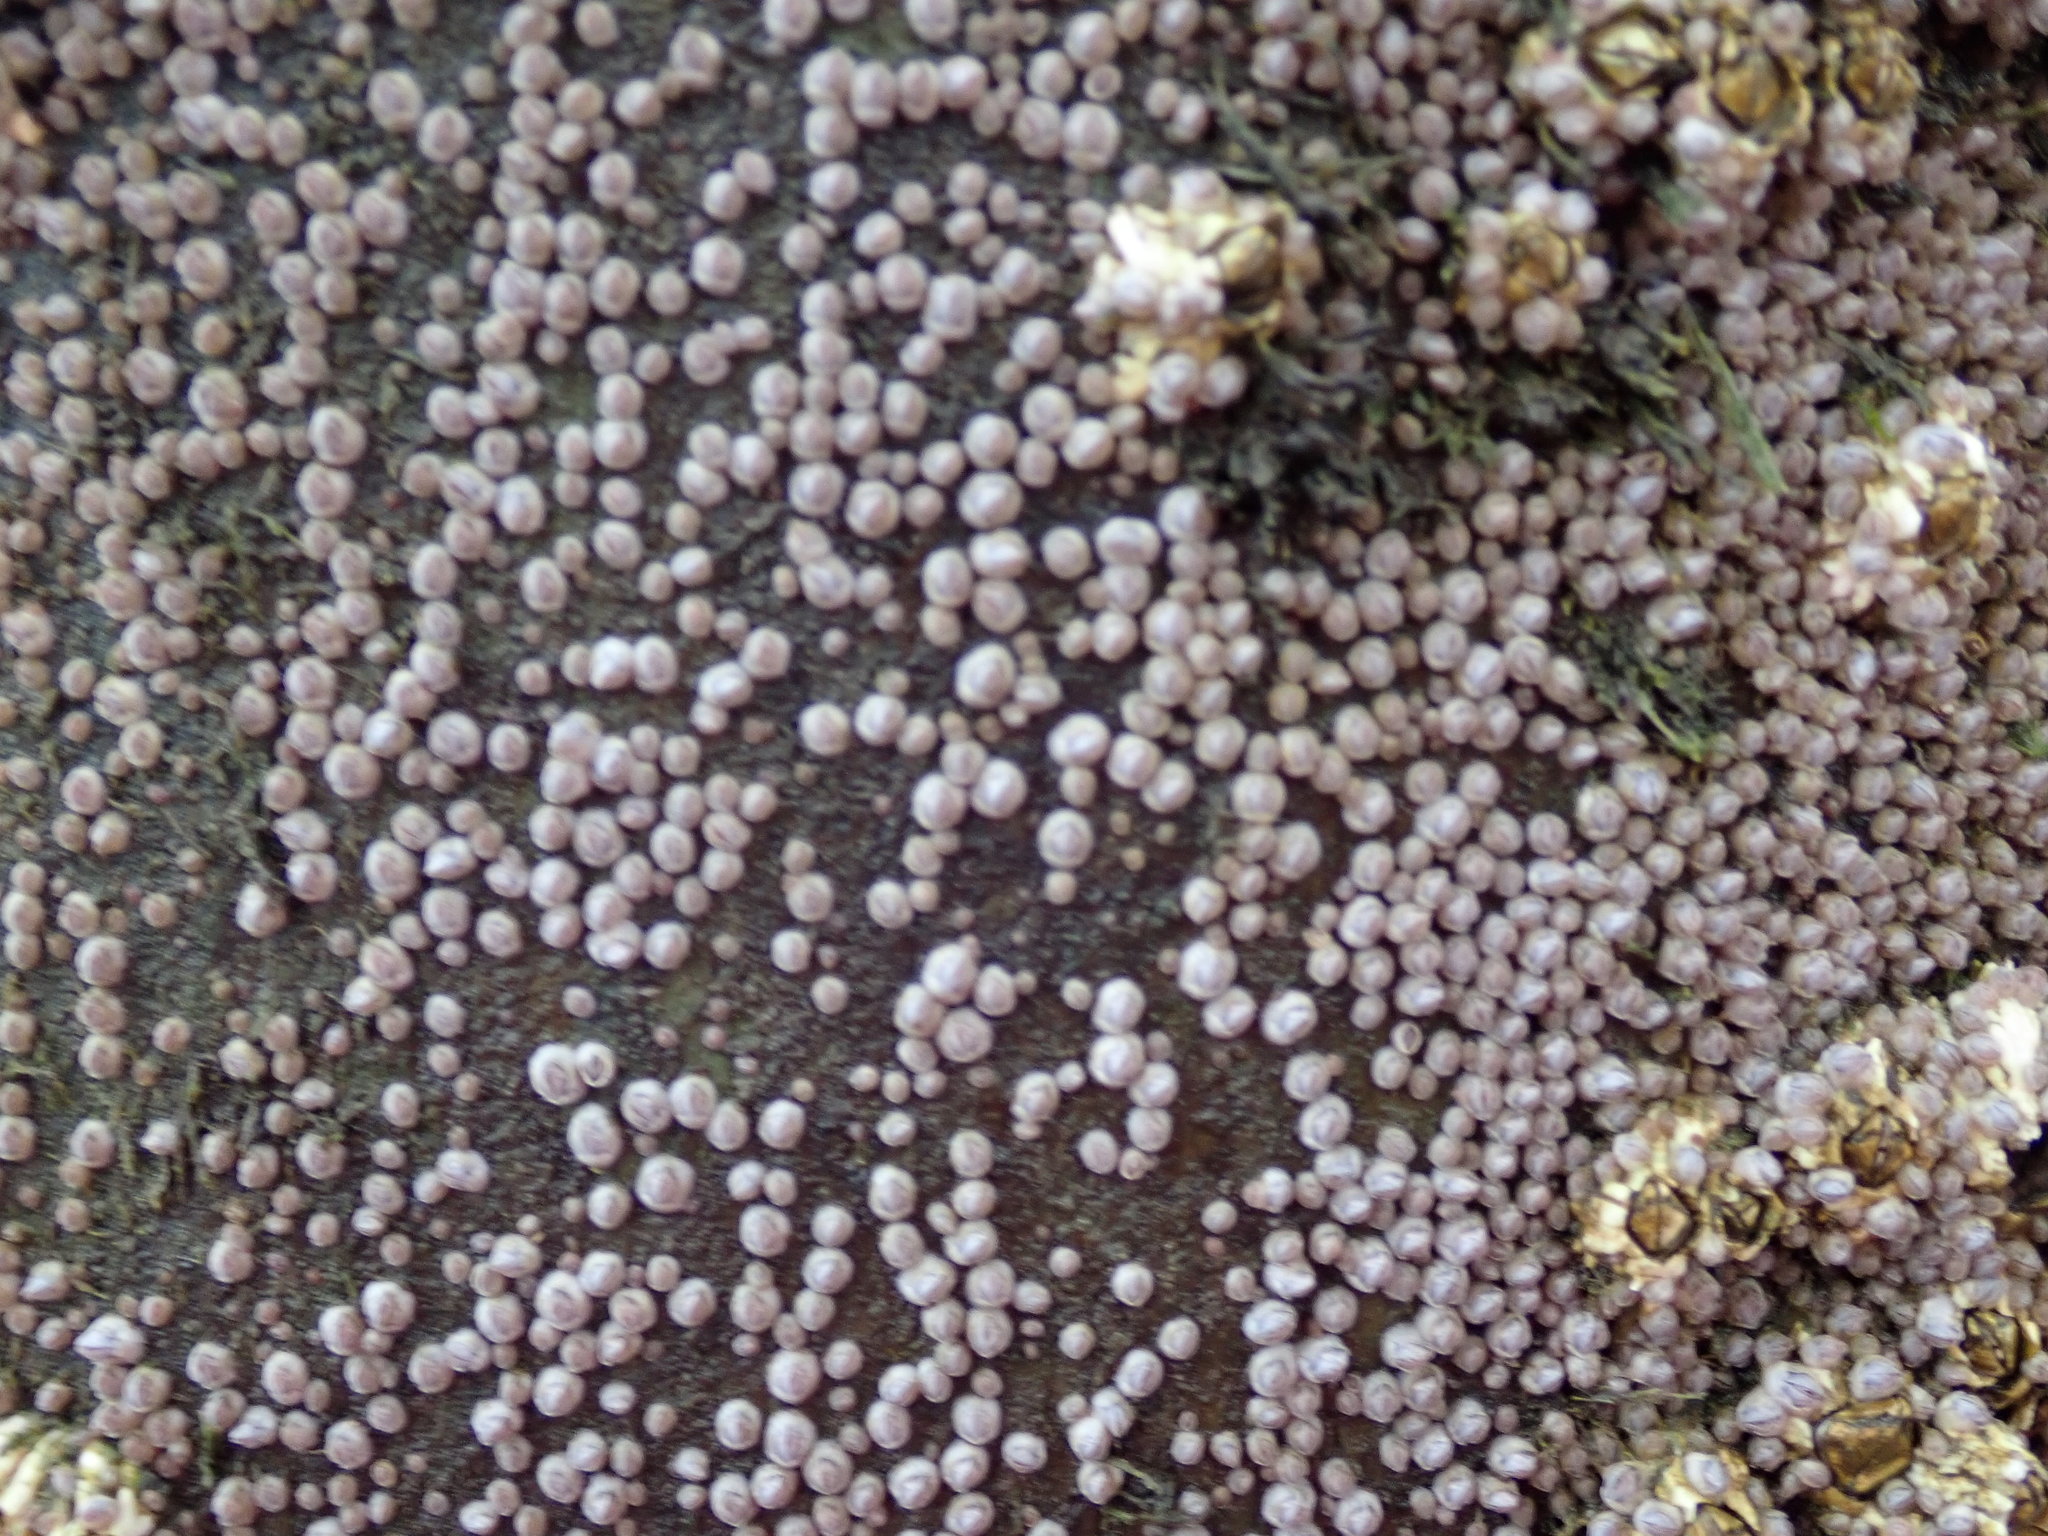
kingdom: Animalia
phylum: Arthropoda
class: Maxillopoda
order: Sessilia
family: Archaeobalanidae
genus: Semibalanus
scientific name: Semibalanus balanoides
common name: Acorn barnacle
